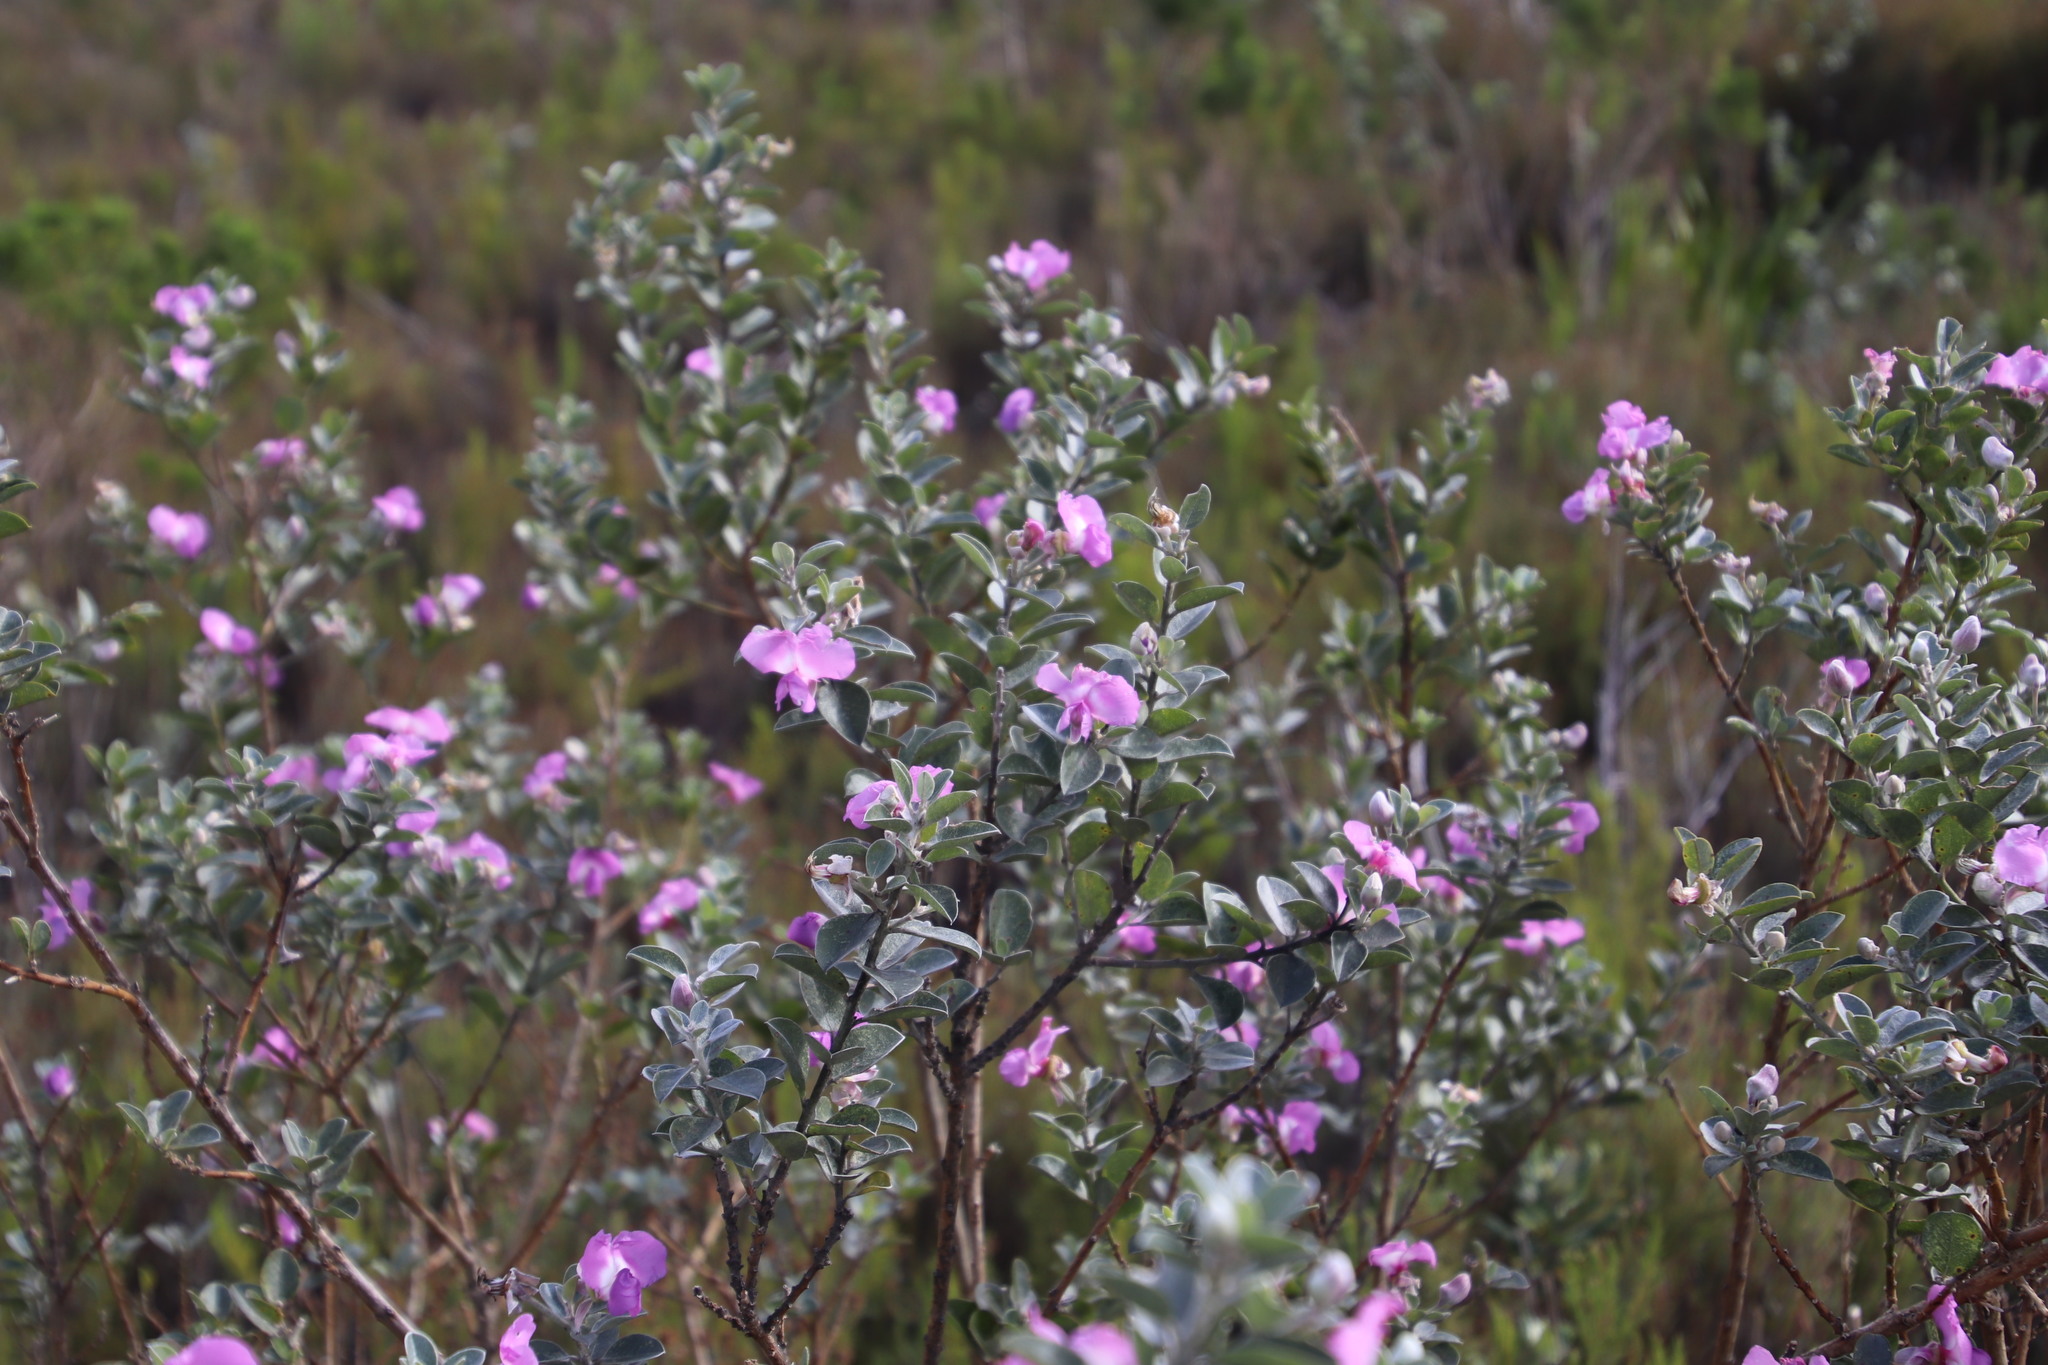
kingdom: Plantae
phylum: Tracheophyta
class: Magnoliopsida
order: Fabales
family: Fabaceae
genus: Podalyria
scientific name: Podalyria calyptrata
